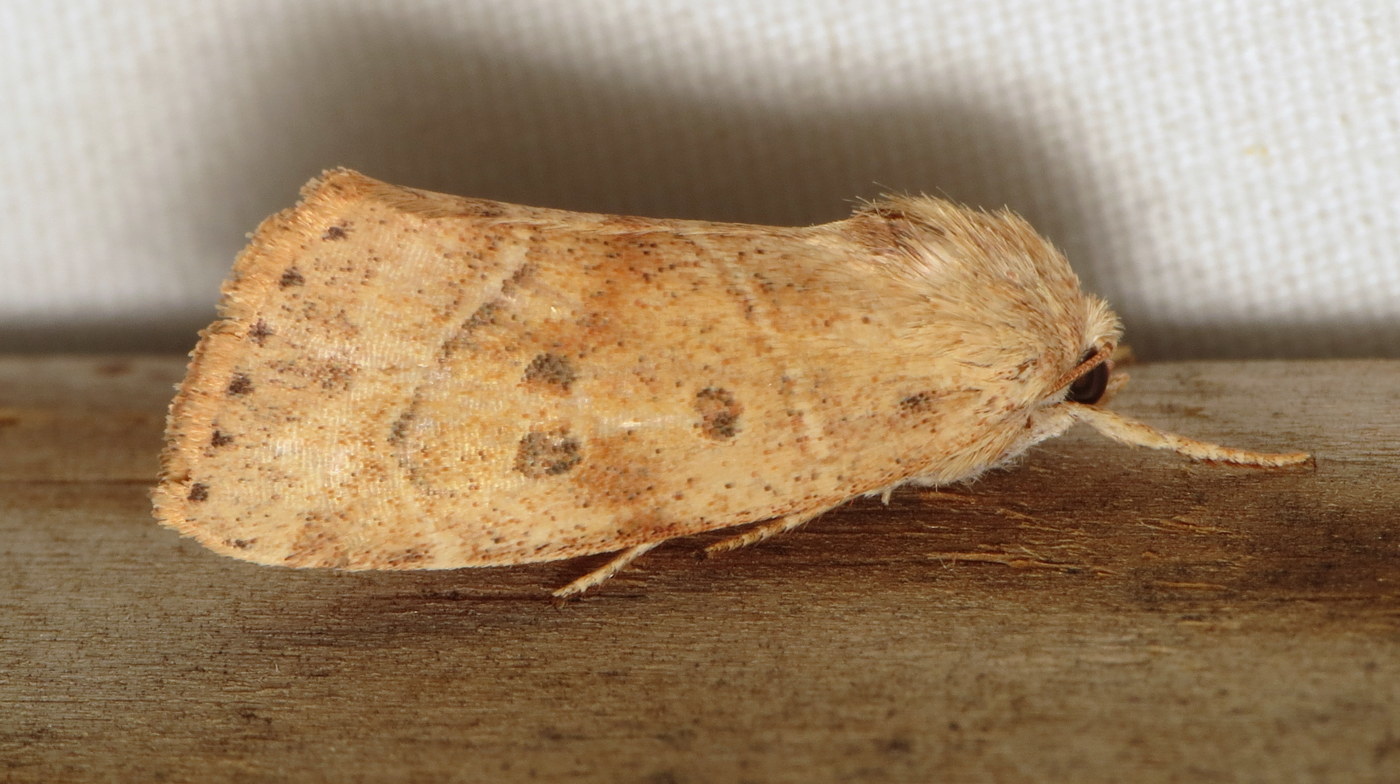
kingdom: Animalia
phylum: Arthropoda
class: Insecta
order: Lepidoptera
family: Noctuidae
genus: Cosmia
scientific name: Cosmia calami
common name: American dun-bar moth
